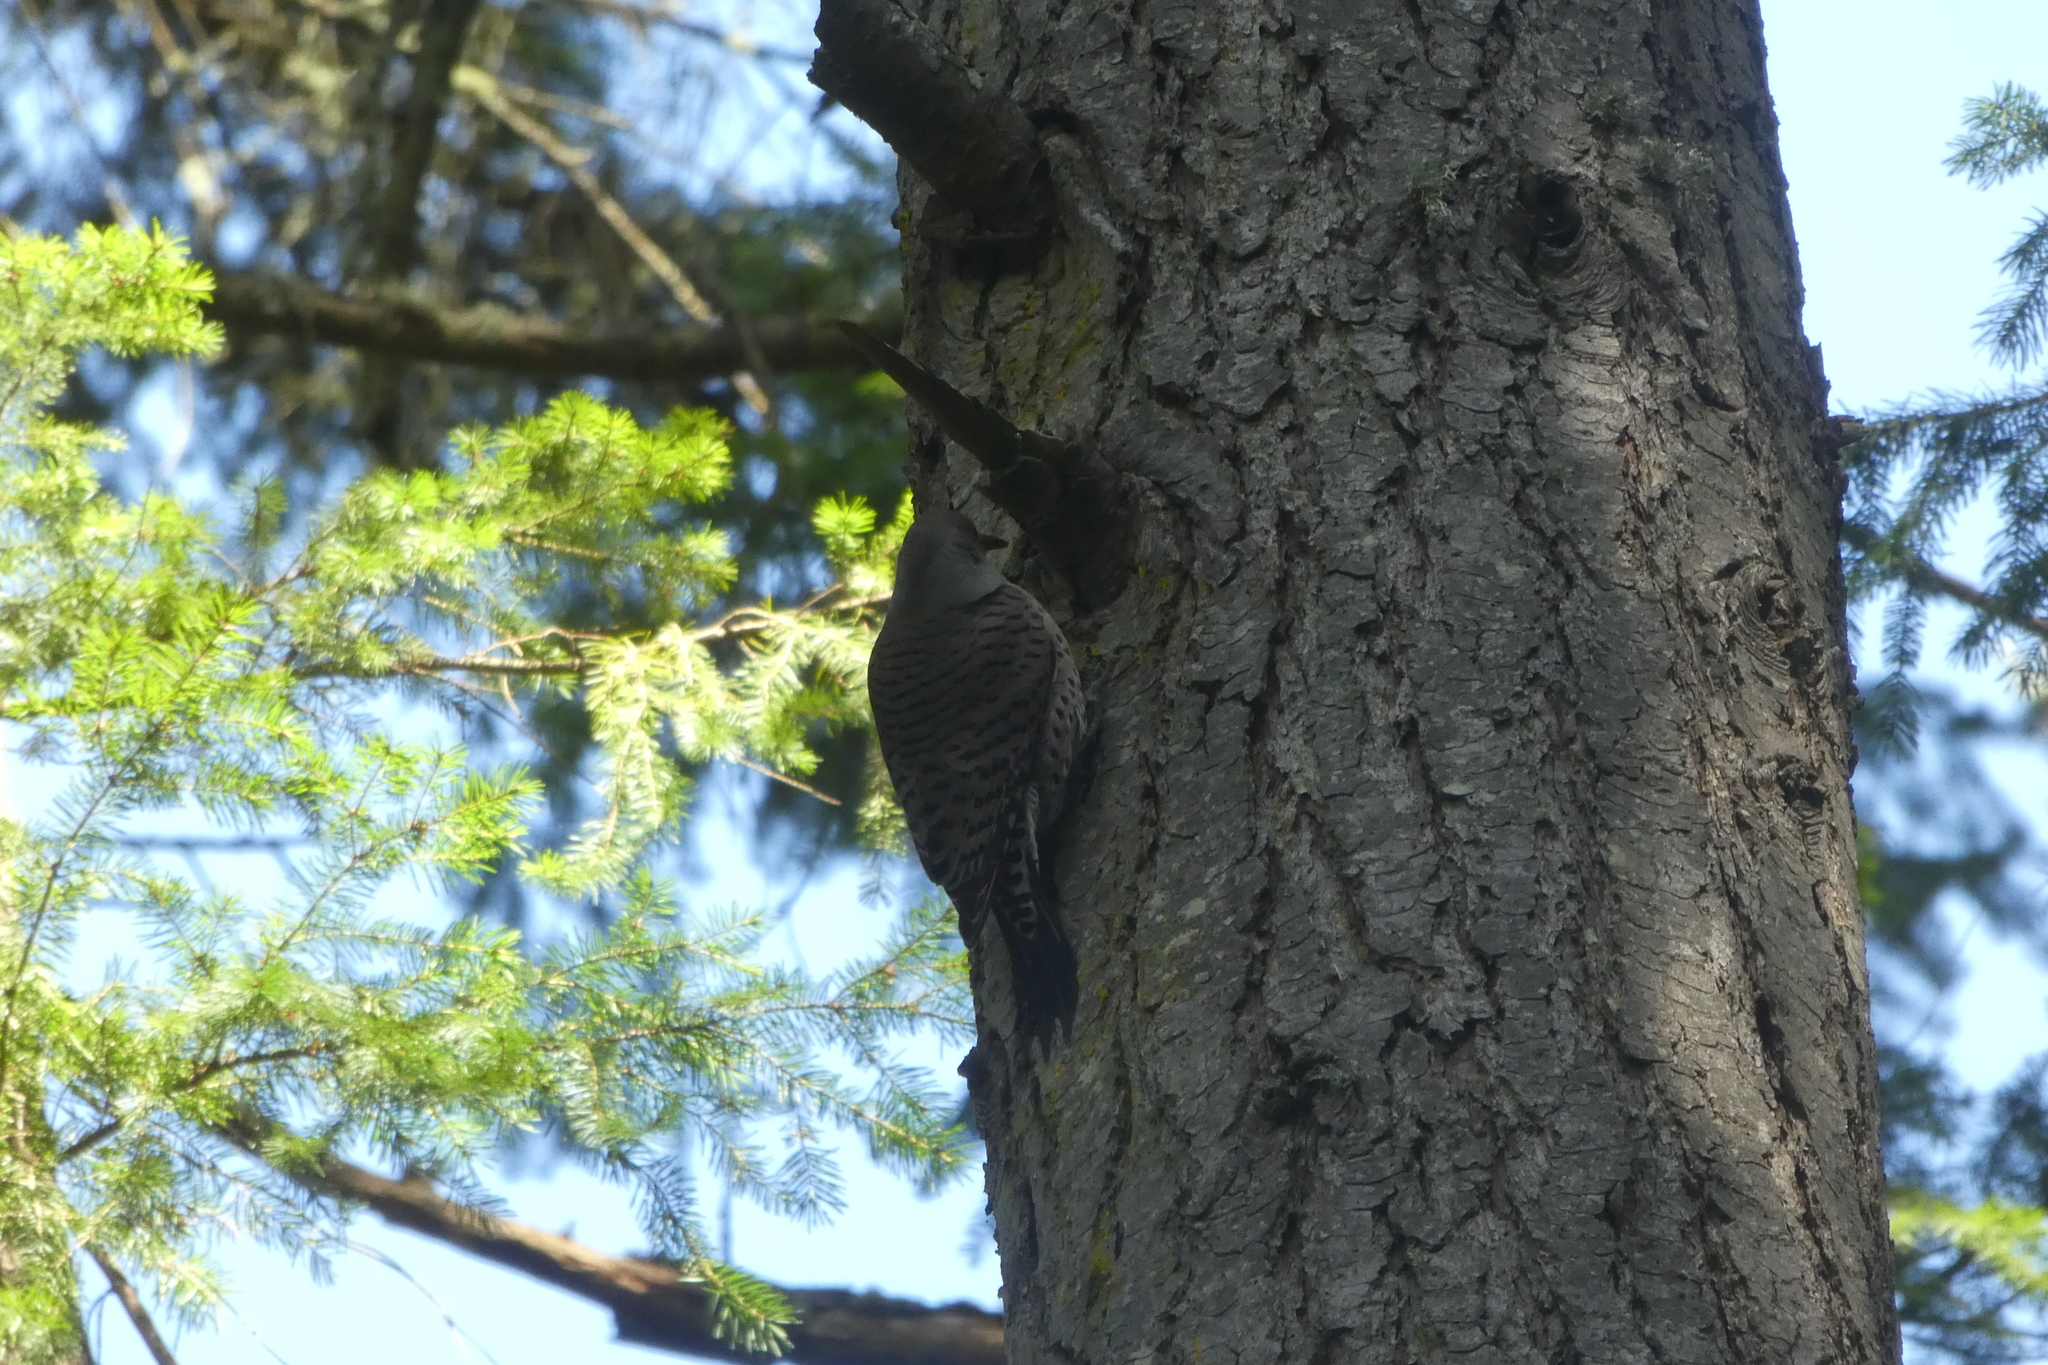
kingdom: Animalia
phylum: Chordata
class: Aves
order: Piciformes
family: Picidae
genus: Colaptes
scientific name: Colaptes auratus
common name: Northern flicker
